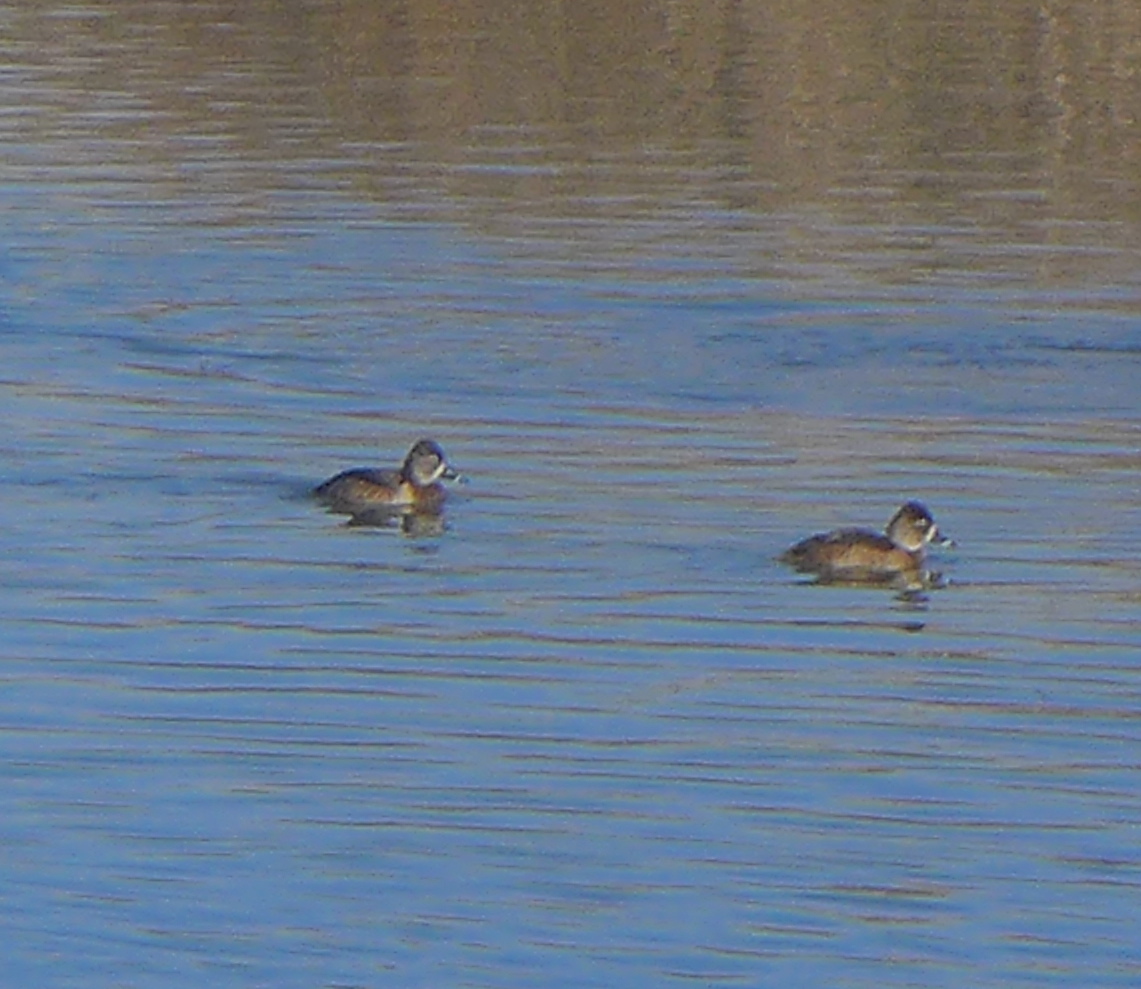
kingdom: Animalia
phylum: Chordata
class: Aves
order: Anseriformes
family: Anatidae
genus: Aythya
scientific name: Aythya collaris
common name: Ring-necked duck
